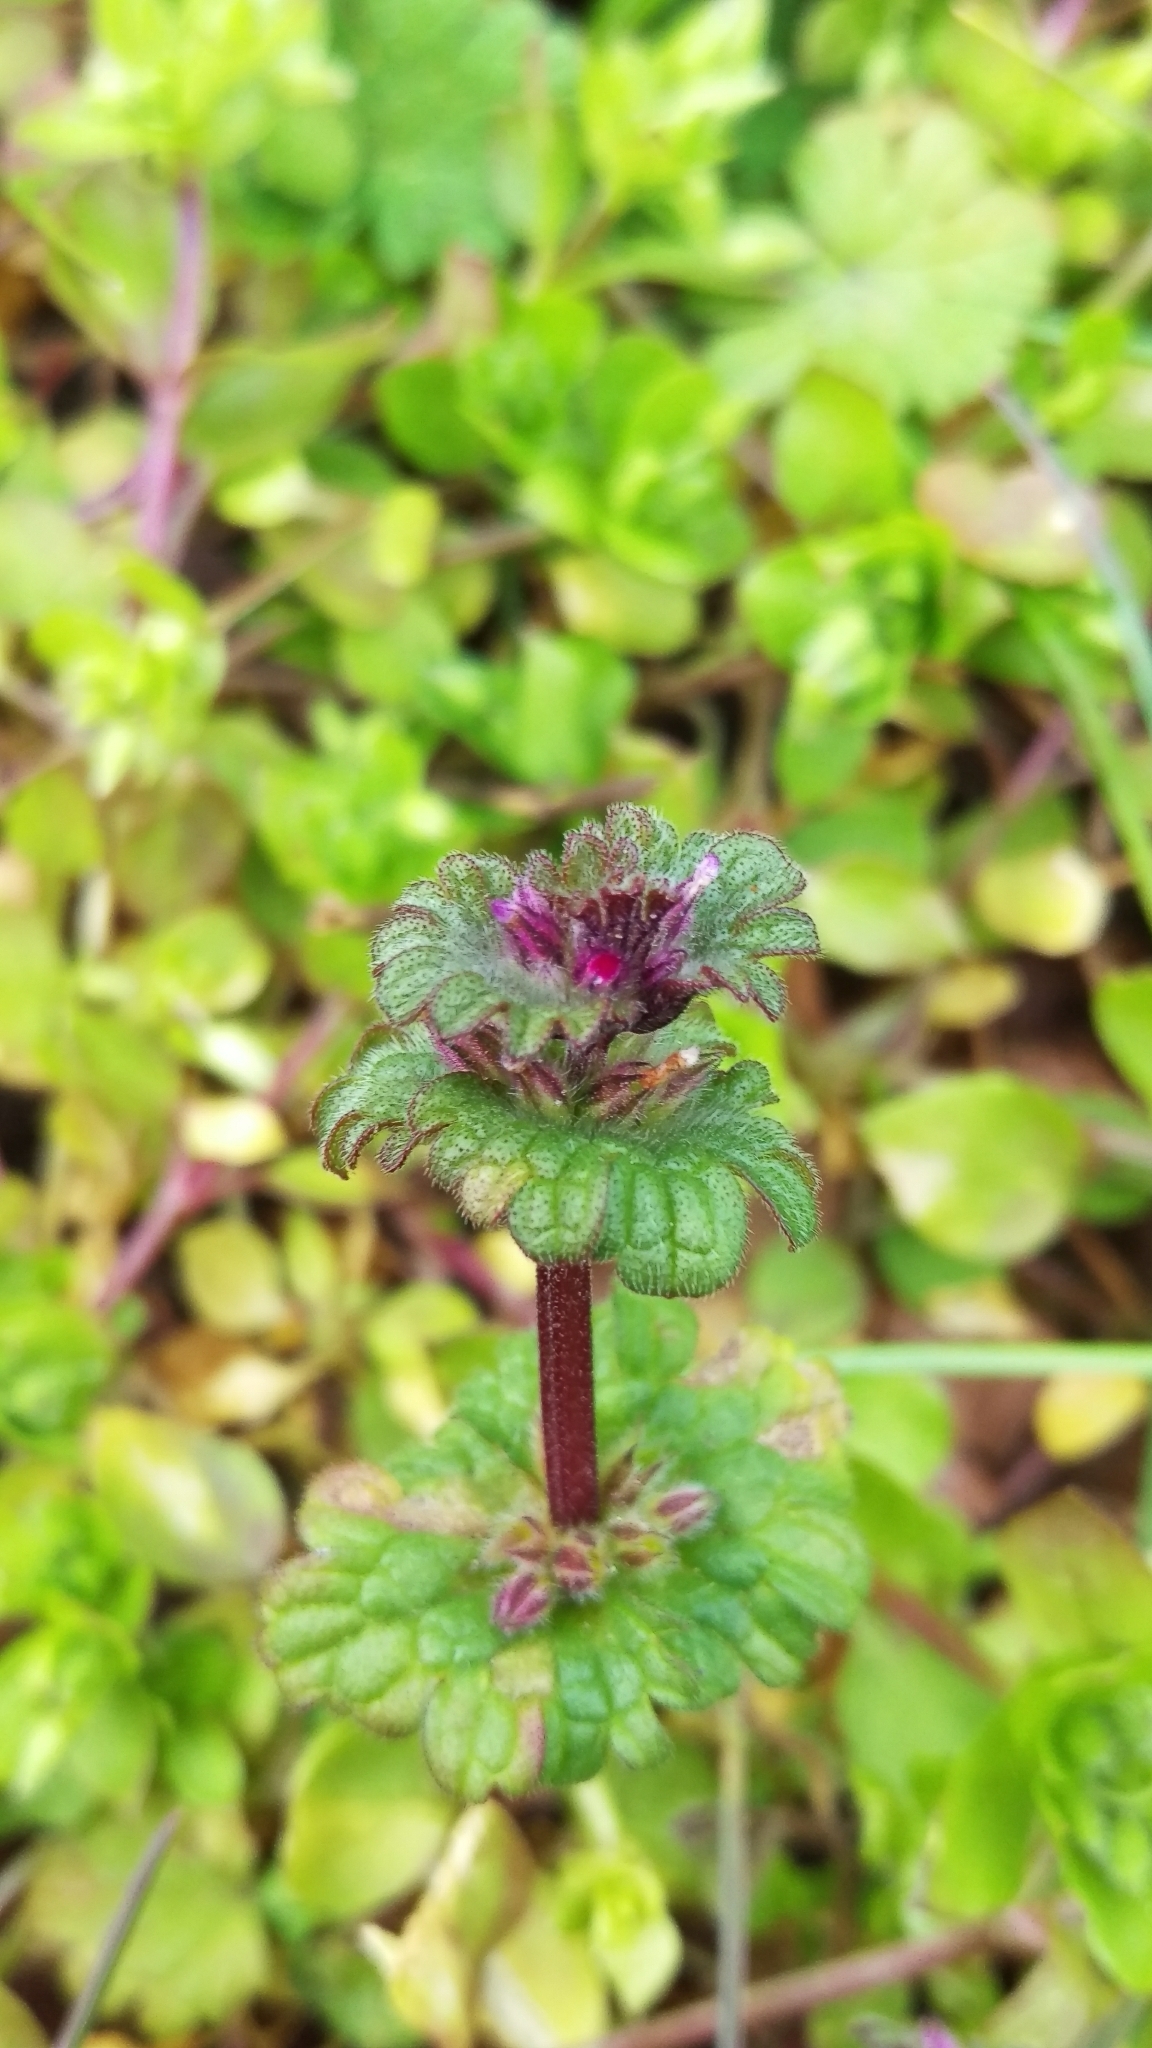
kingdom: Plantae
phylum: Tracheophyta
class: Magnoliopsida
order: Lamiales
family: Lamiaceae
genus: Lamium
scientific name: Lamium amplexicaule
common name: Henbit dead-nettle
